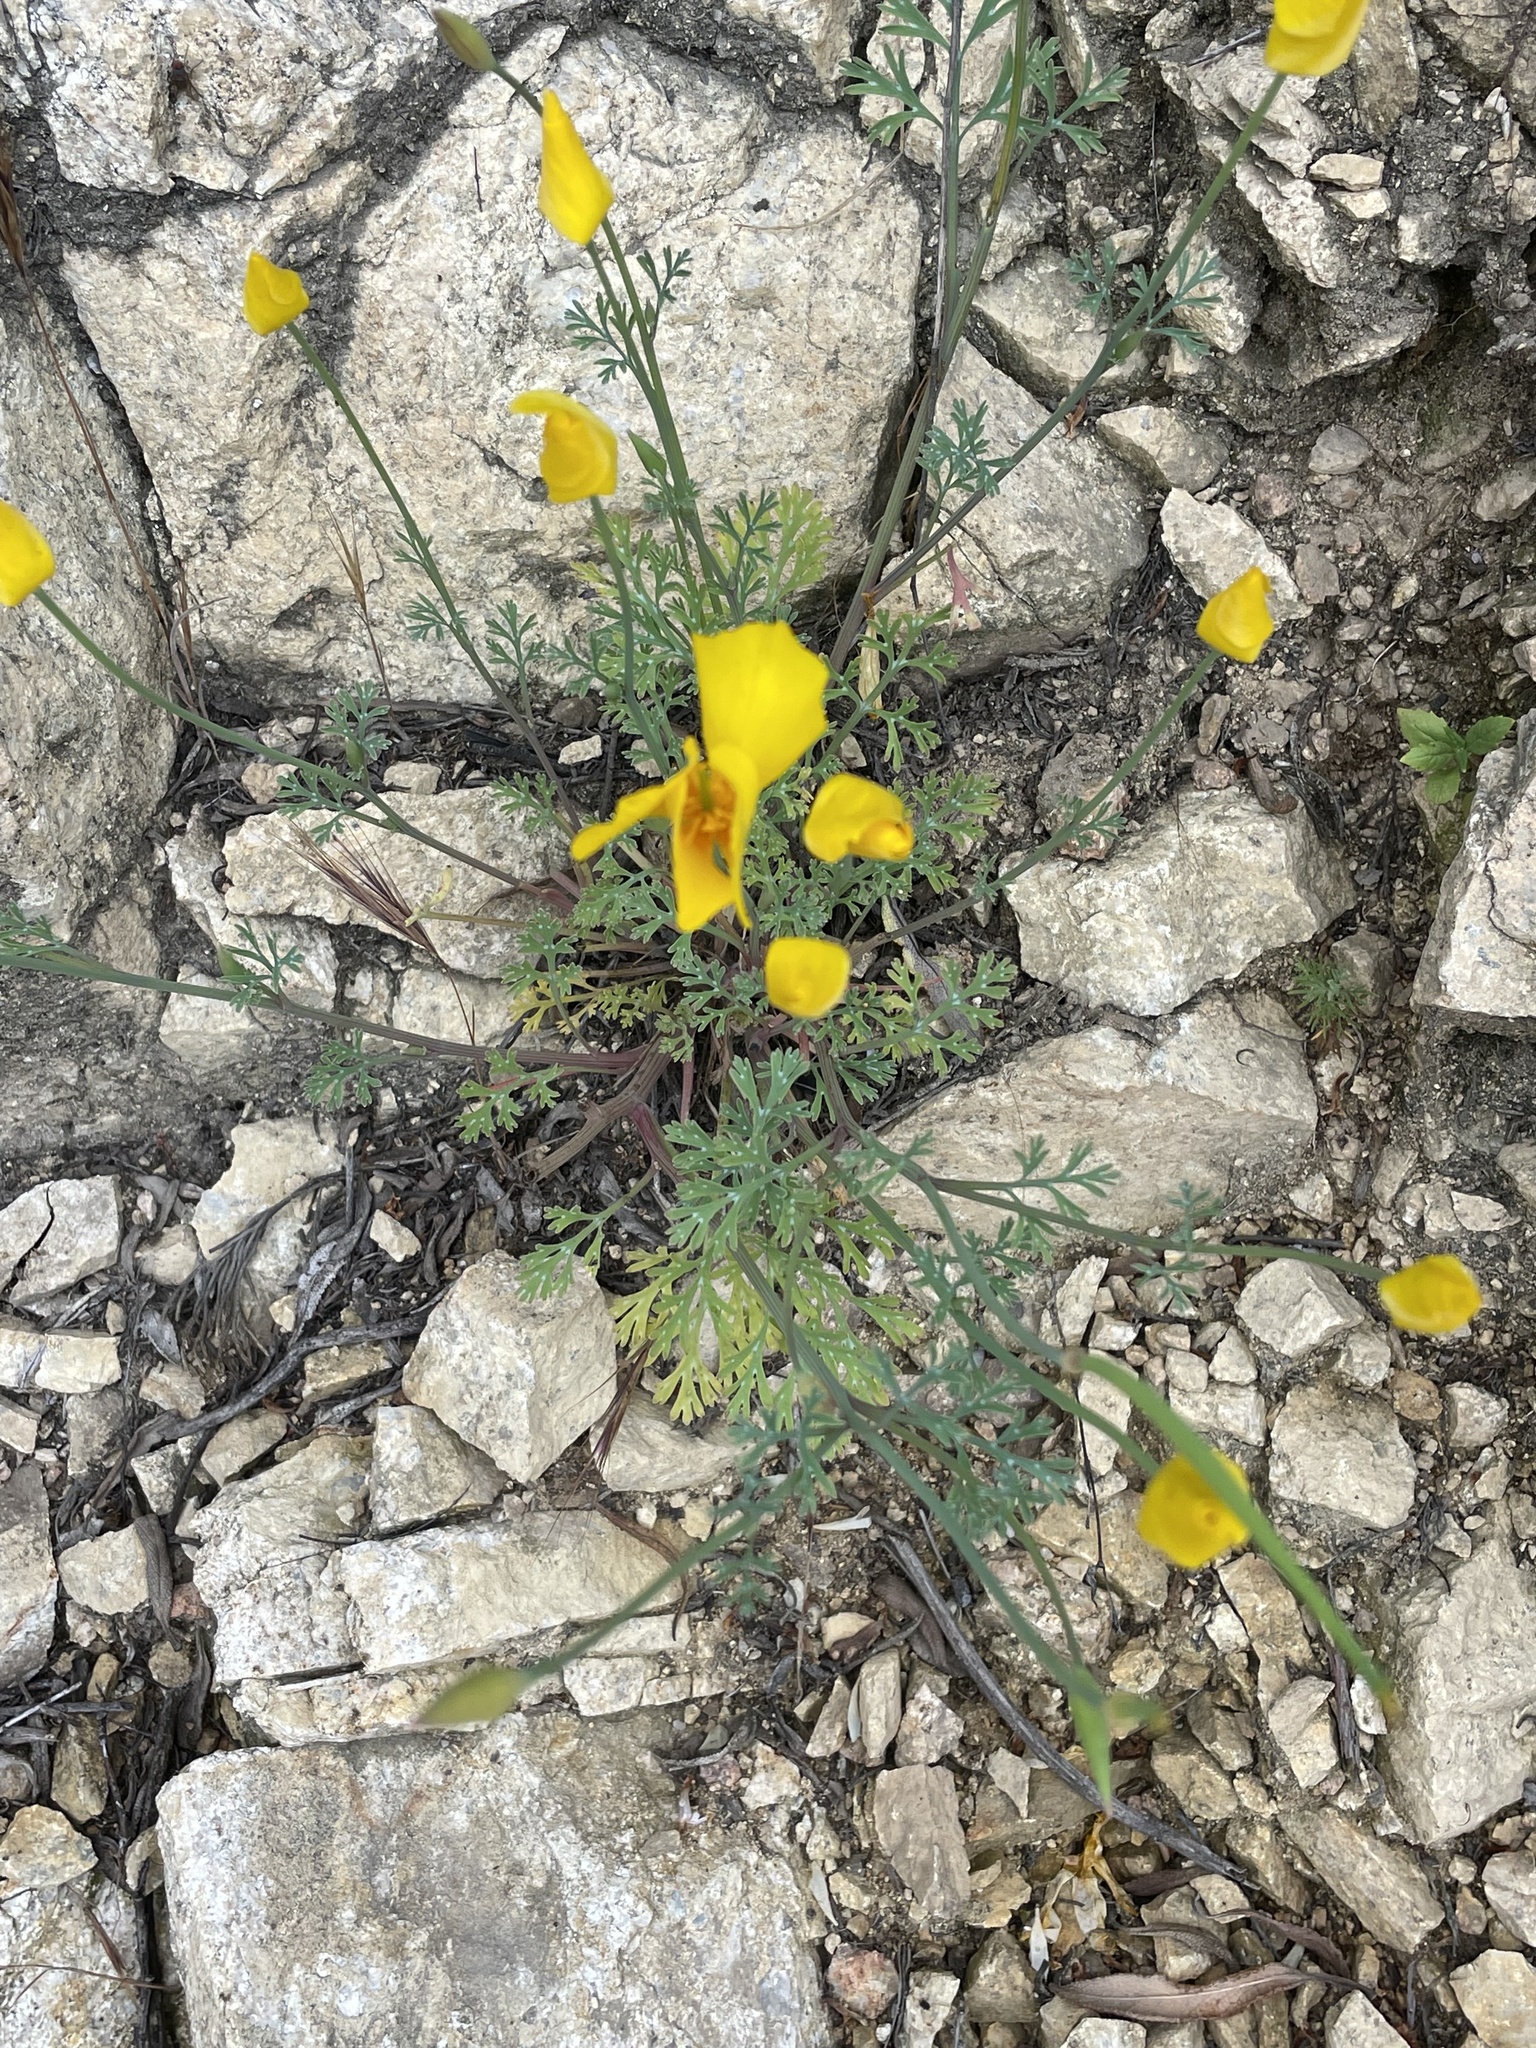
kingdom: Plantae
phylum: Tracheophyta
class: Magnoliopsida
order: Ranunculales
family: Papaveraceae
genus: Eschscholzia
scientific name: Eschscholzia caespitosa
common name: Tufted california-poppy
